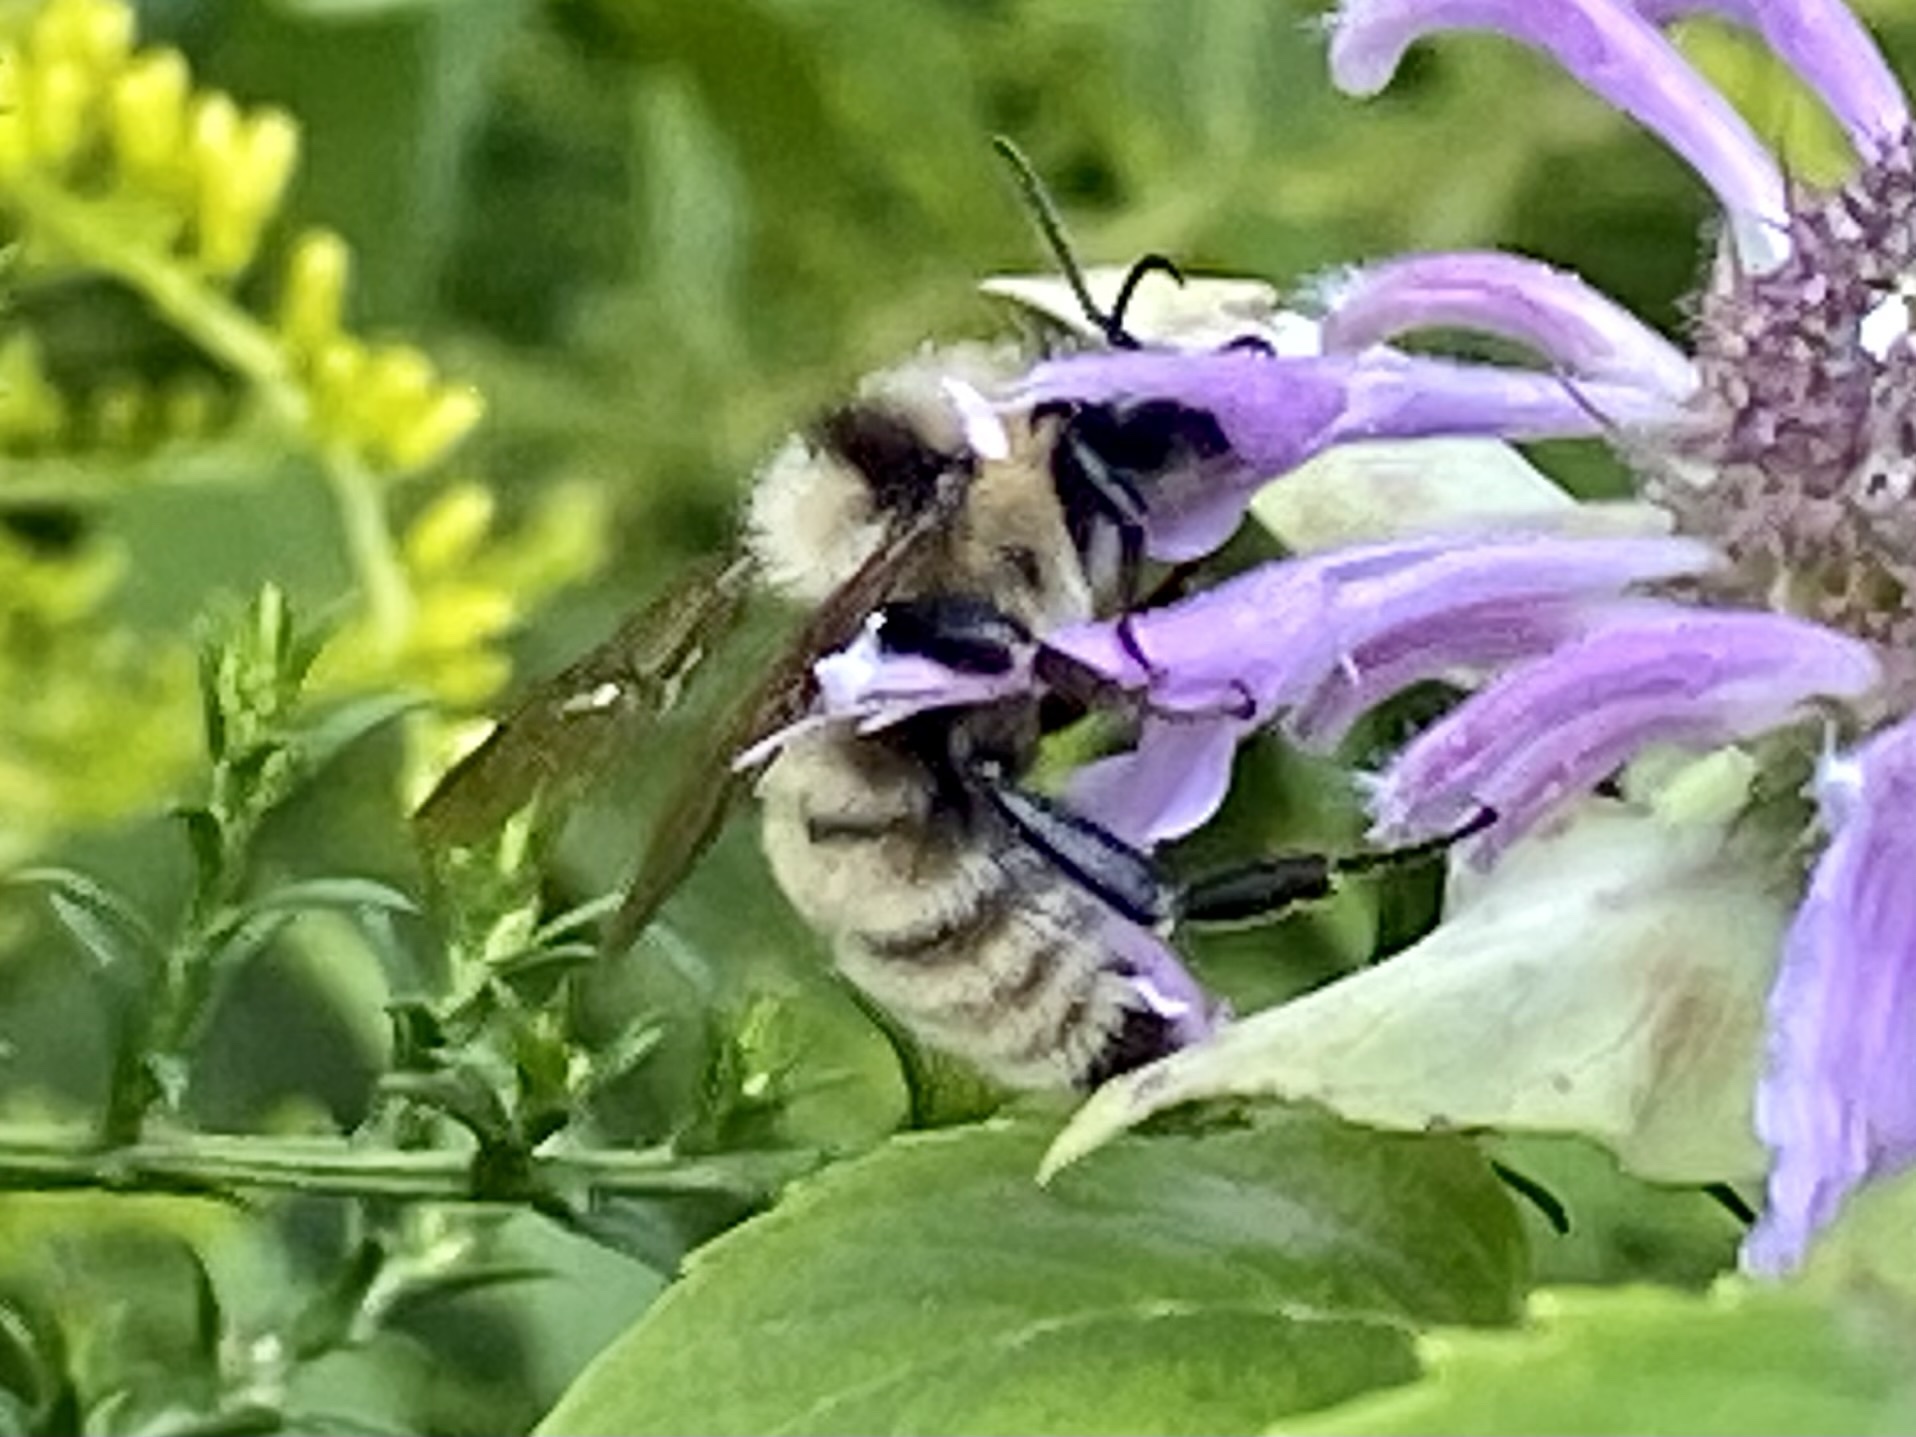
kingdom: Animalia
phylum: Arthropoda
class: Insecta
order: Hymenoptera
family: Apidae
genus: Bombus
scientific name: Bombus fervidus
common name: Yellow bumble bee
